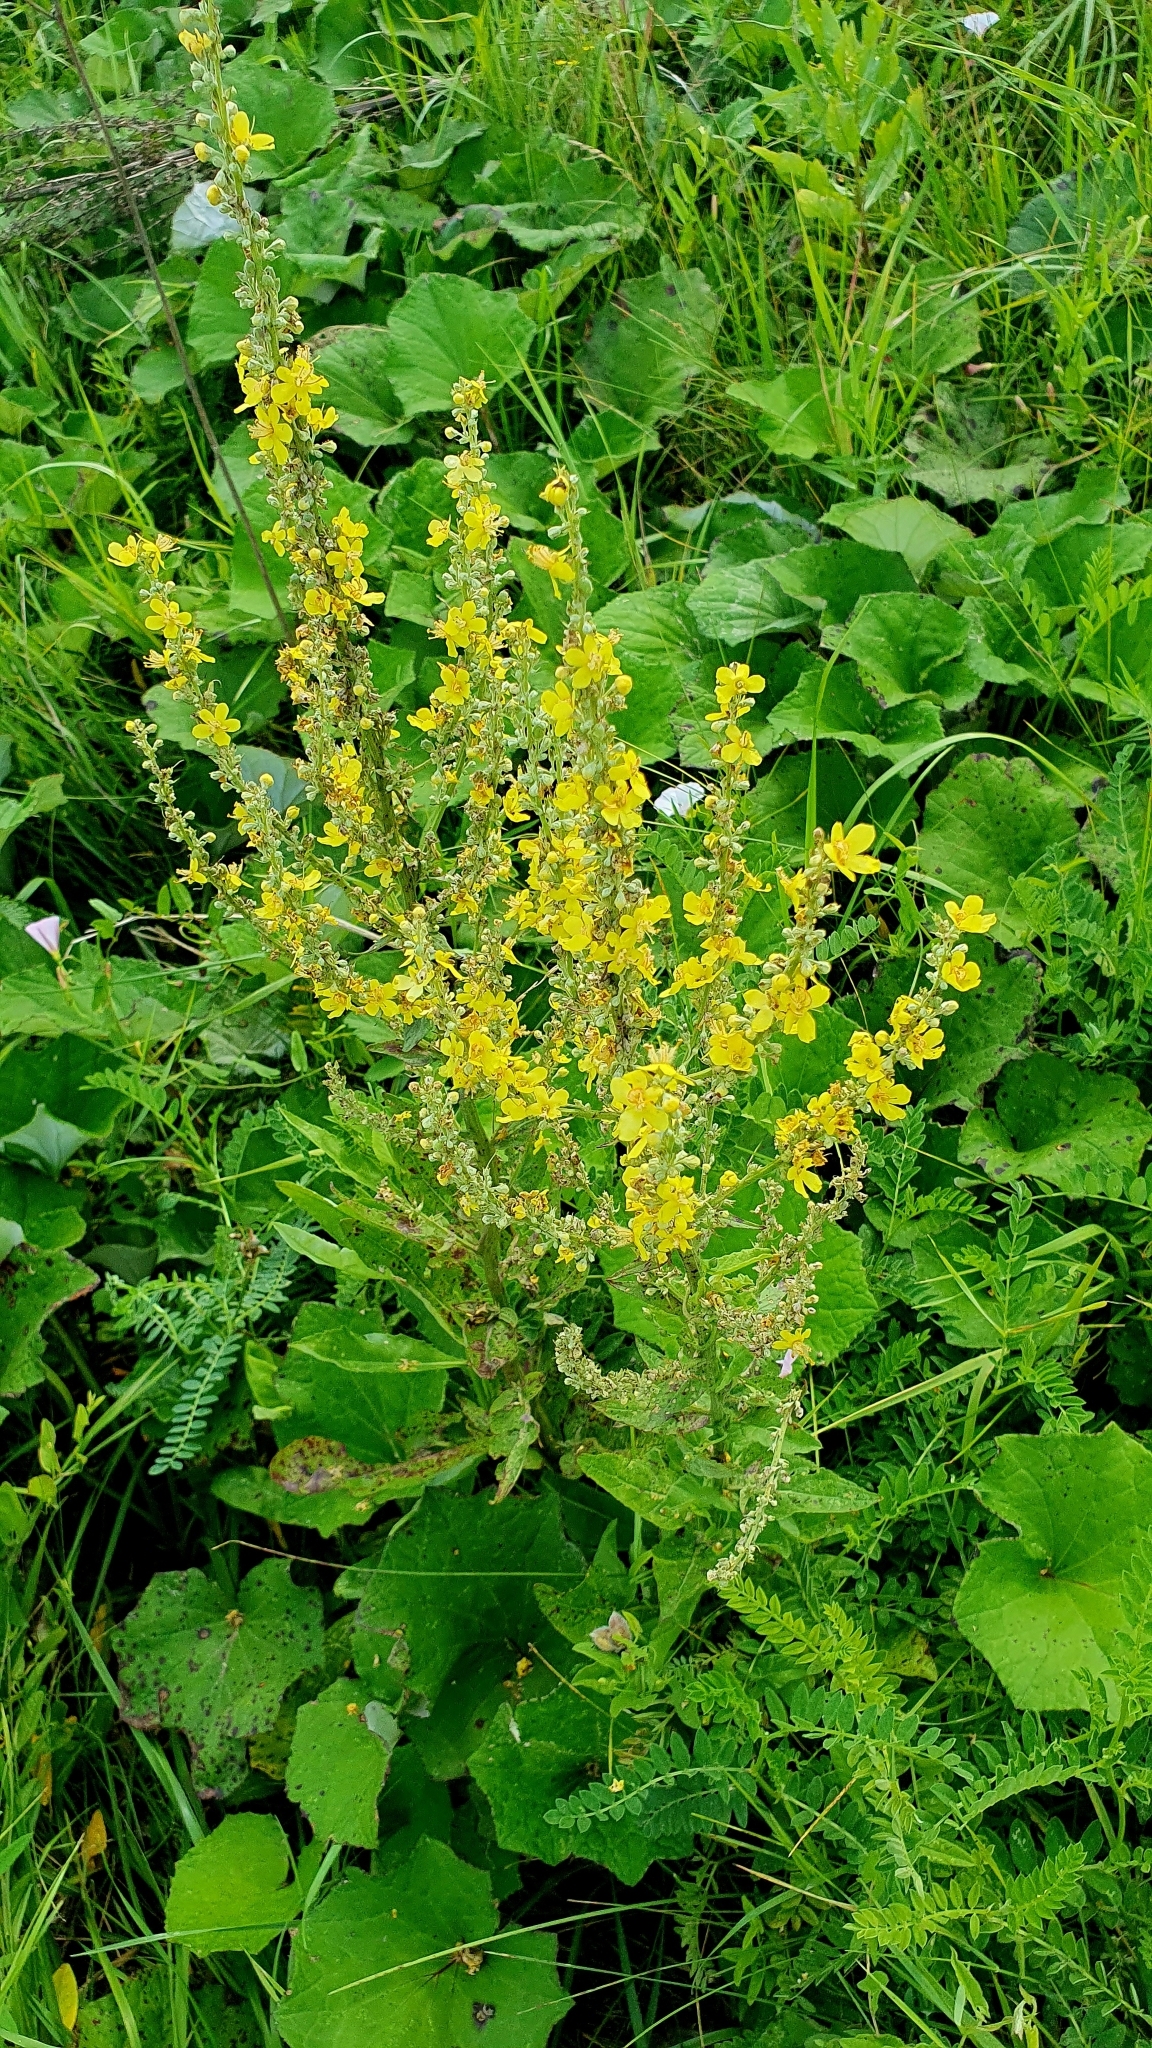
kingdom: Plantae
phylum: Tracheophyta
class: Magnoliopsida
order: Lamiales
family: Scrophulariaceae
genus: Verbascum
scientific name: Verbascum lychnitis
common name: White mullein
